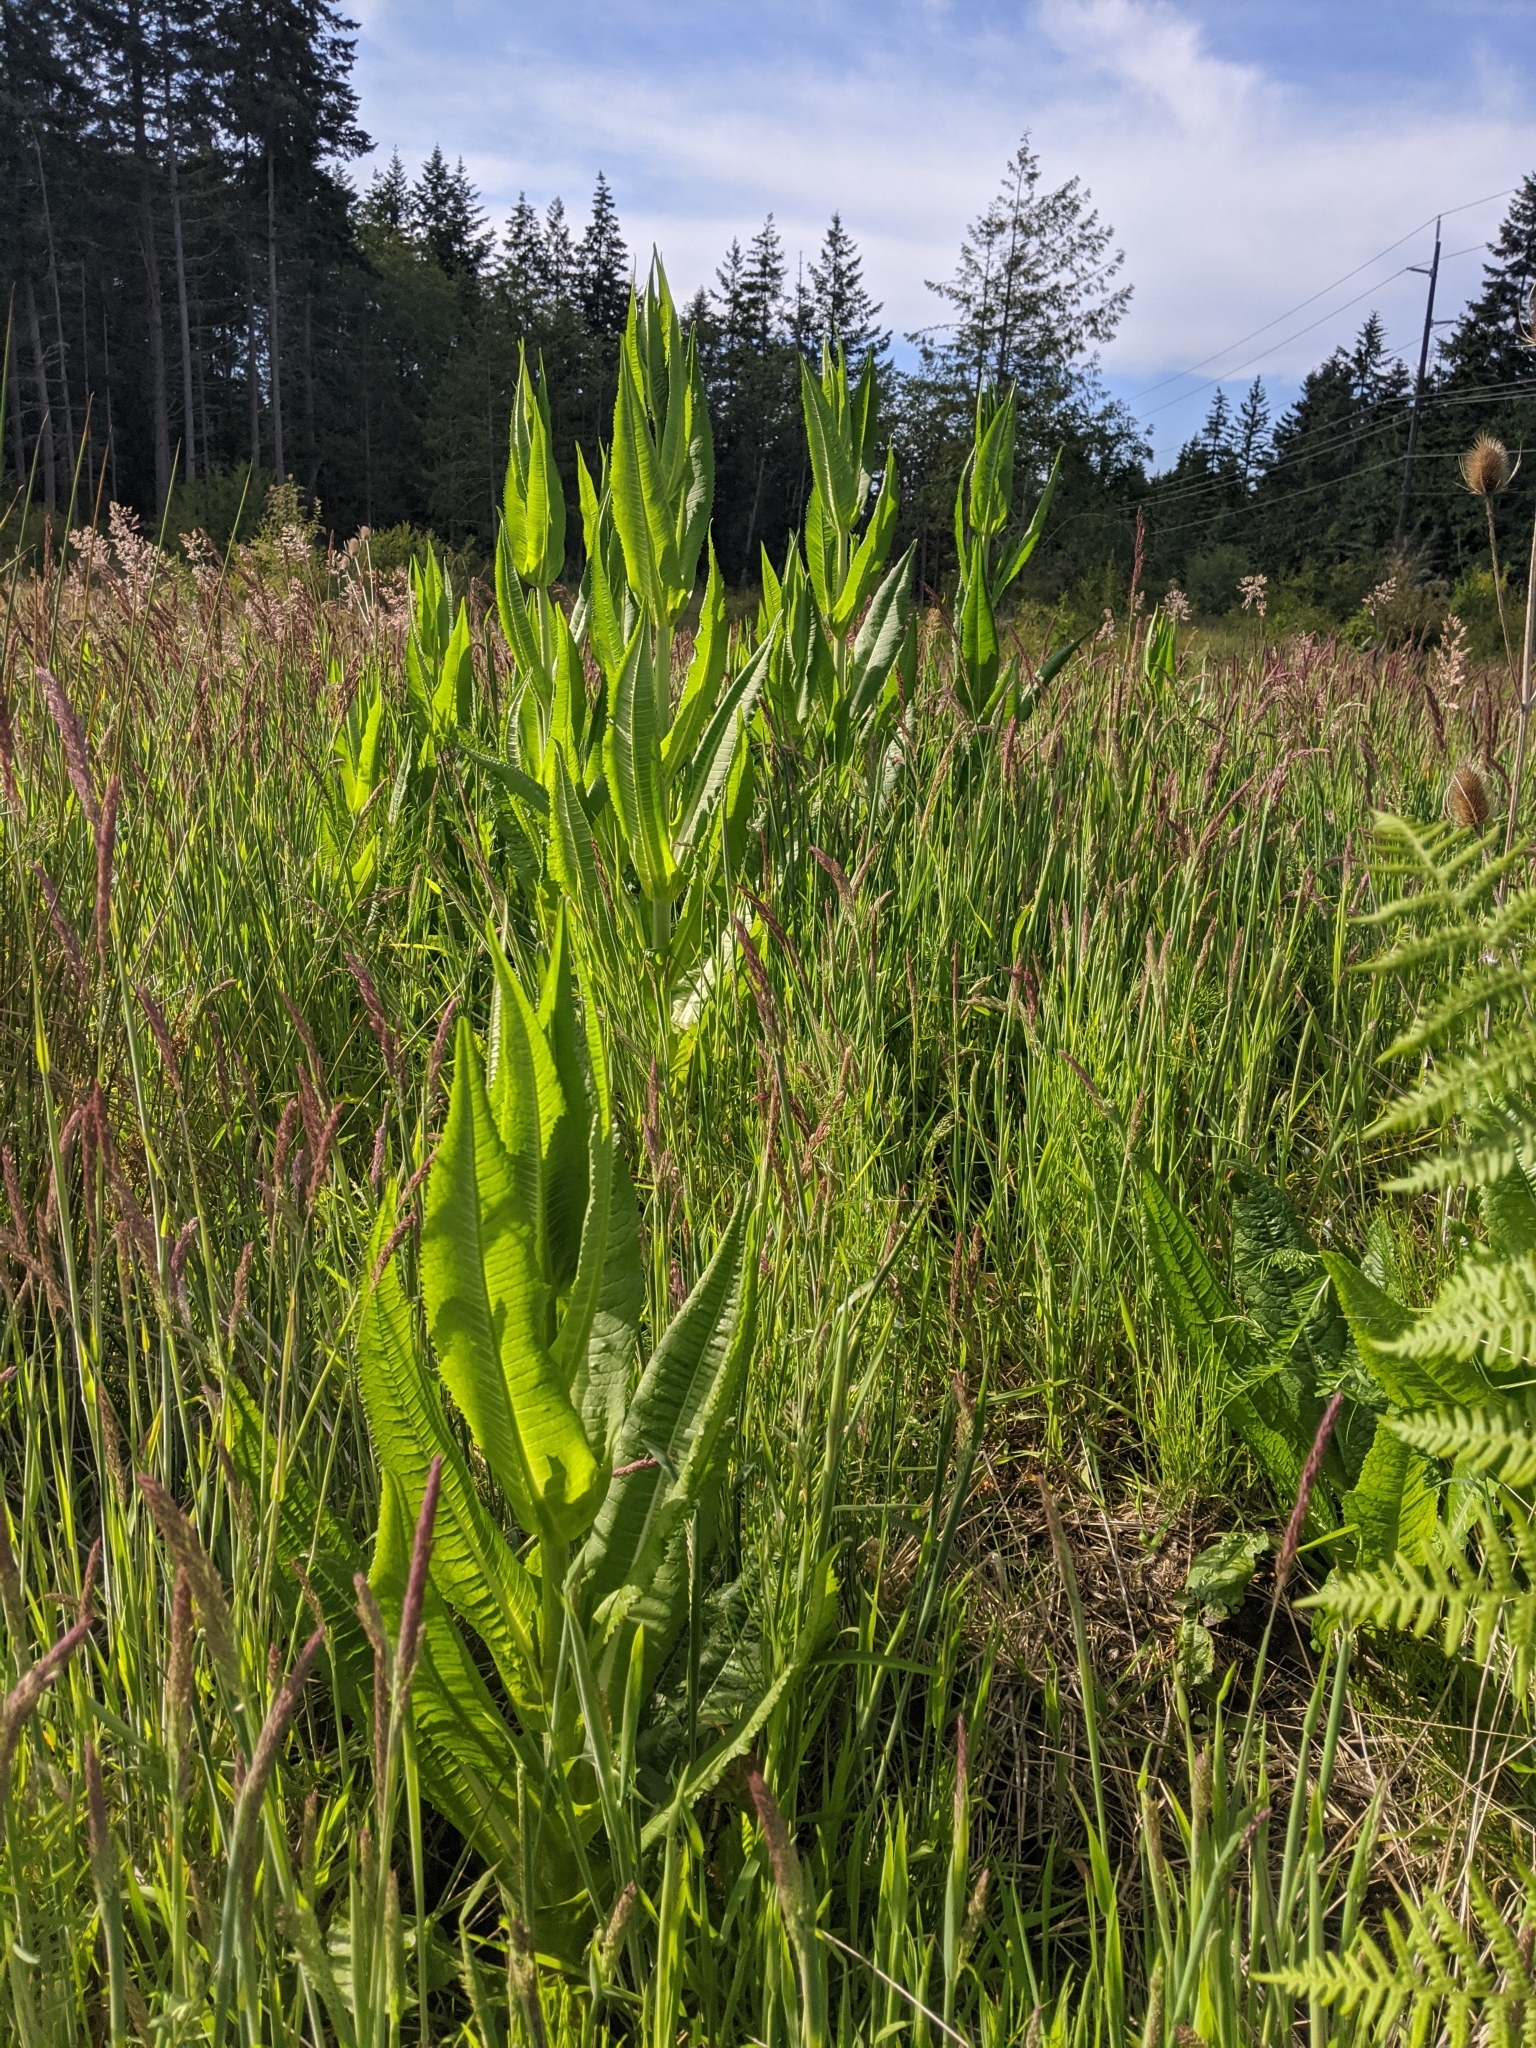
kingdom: Plantae
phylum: Tracheophyta
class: Magnoliopsida
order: Dipsacales
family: Caprifoliaceae
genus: Dipsacus
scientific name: Dipsacus fullonum
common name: Teasel
